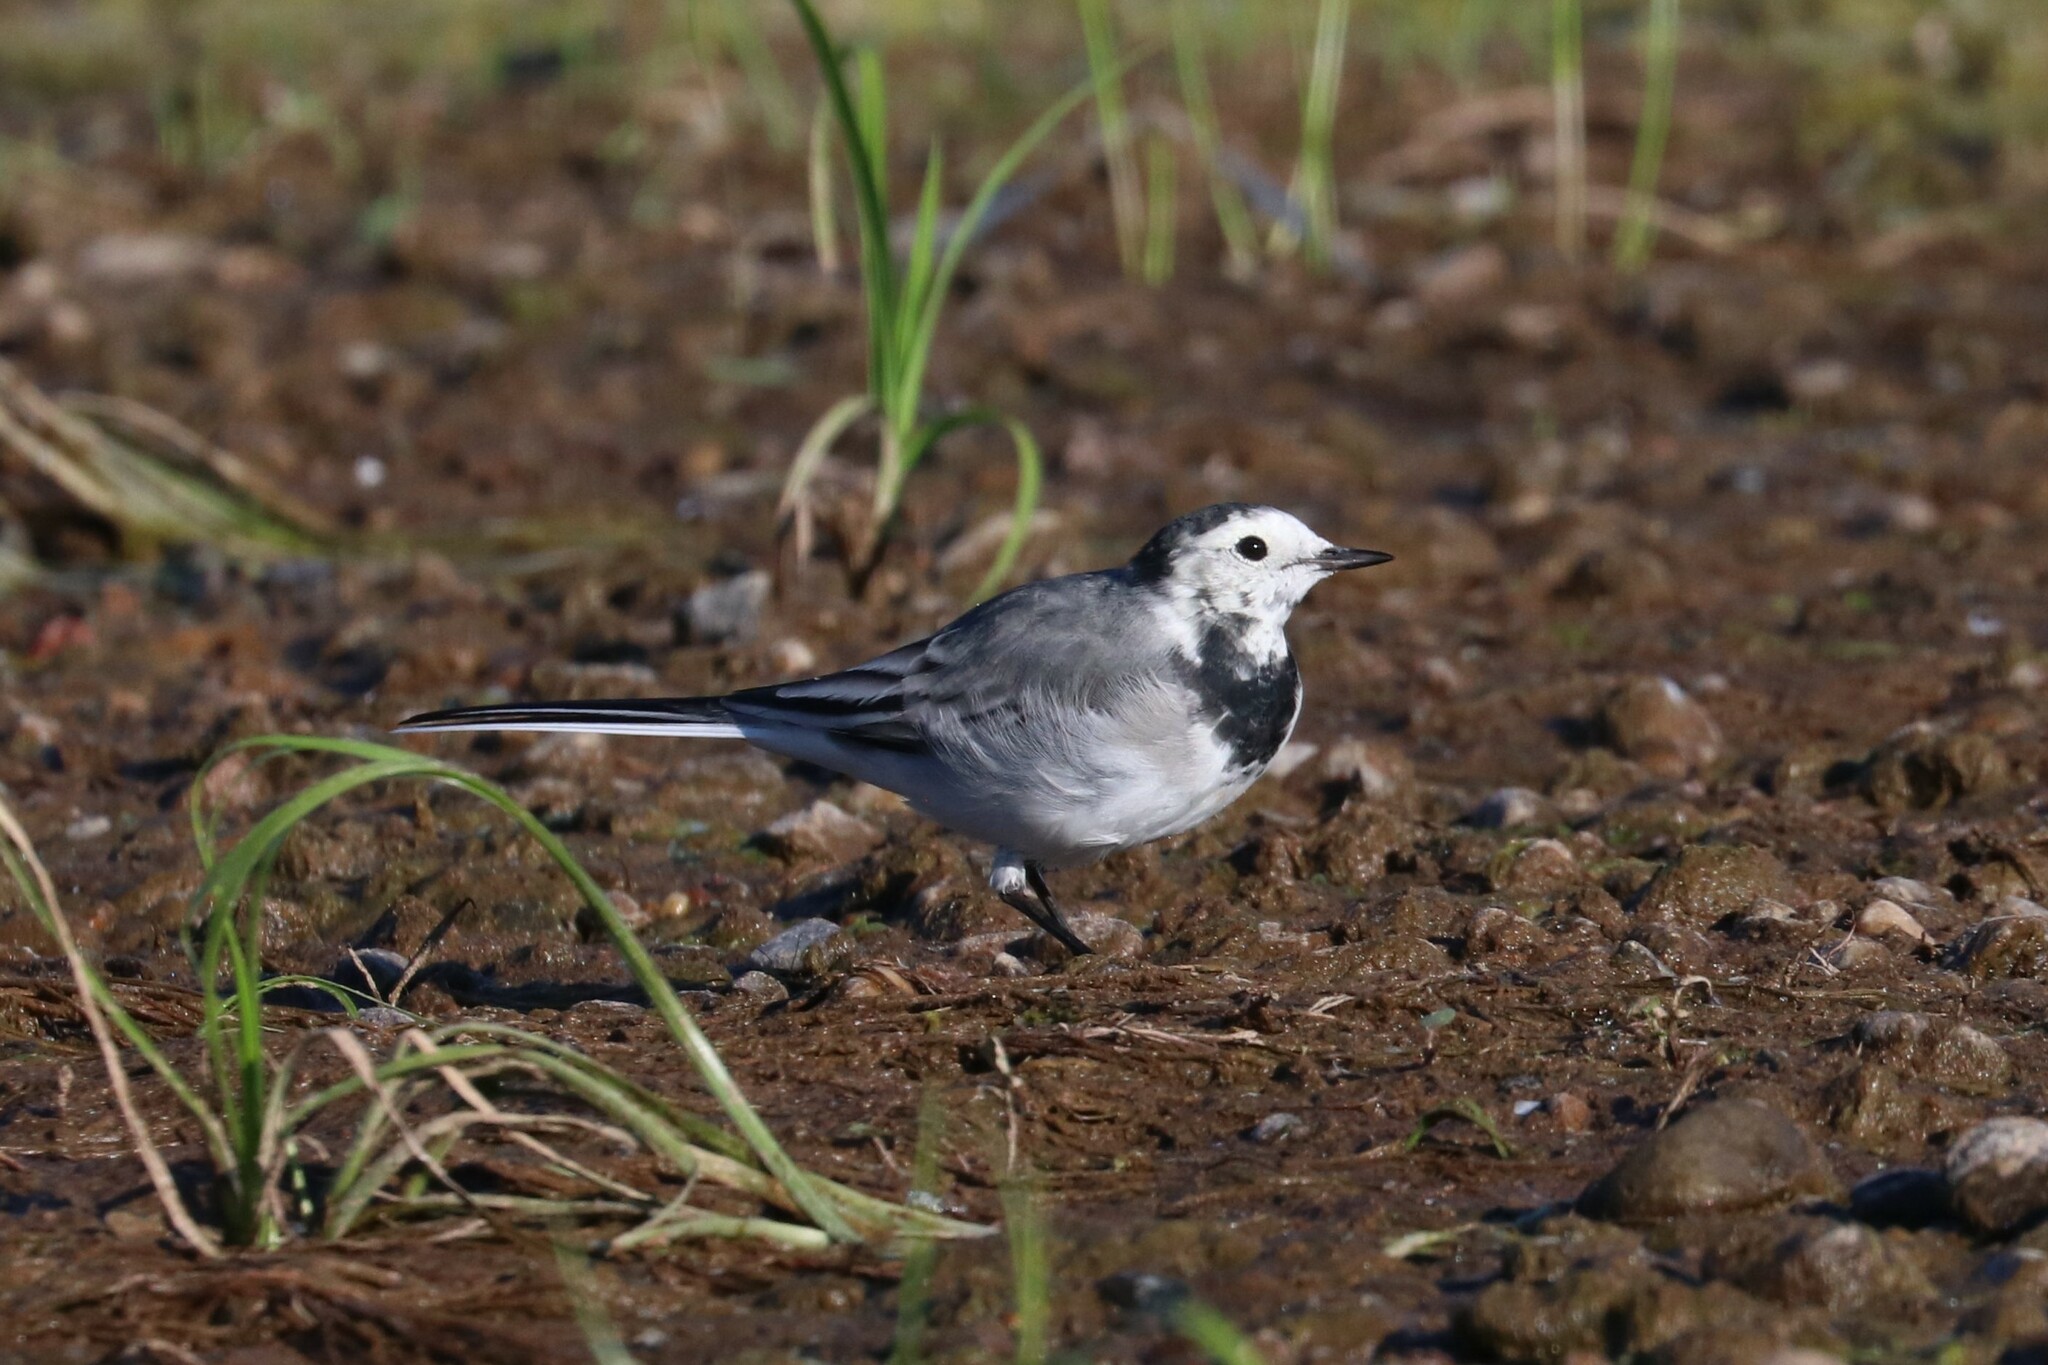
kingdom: Animalia
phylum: Chordata
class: Aves
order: Passeriformes
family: Motacillidae
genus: Motacilla
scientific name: Motacilla alba
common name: White wagtail
